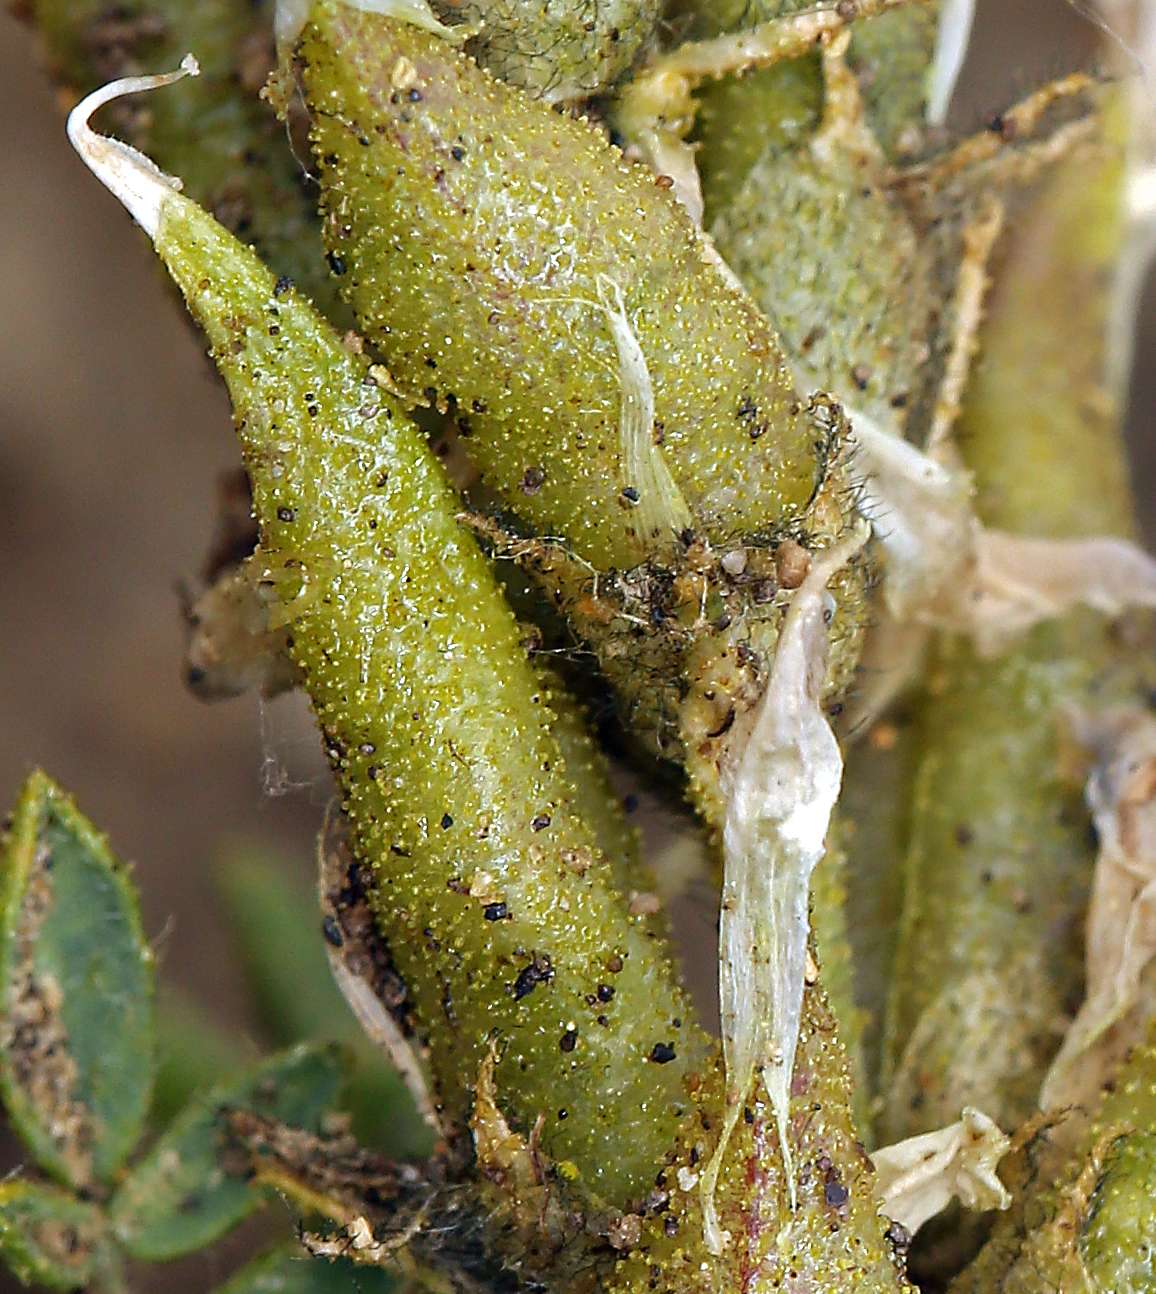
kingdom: Plantae
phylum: Tracheophyta
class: Magnoliopsida
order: Fabales
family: Fabaceae
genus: Oxytropis
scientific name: Oxytropis borealis
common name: Boreal locoweed
